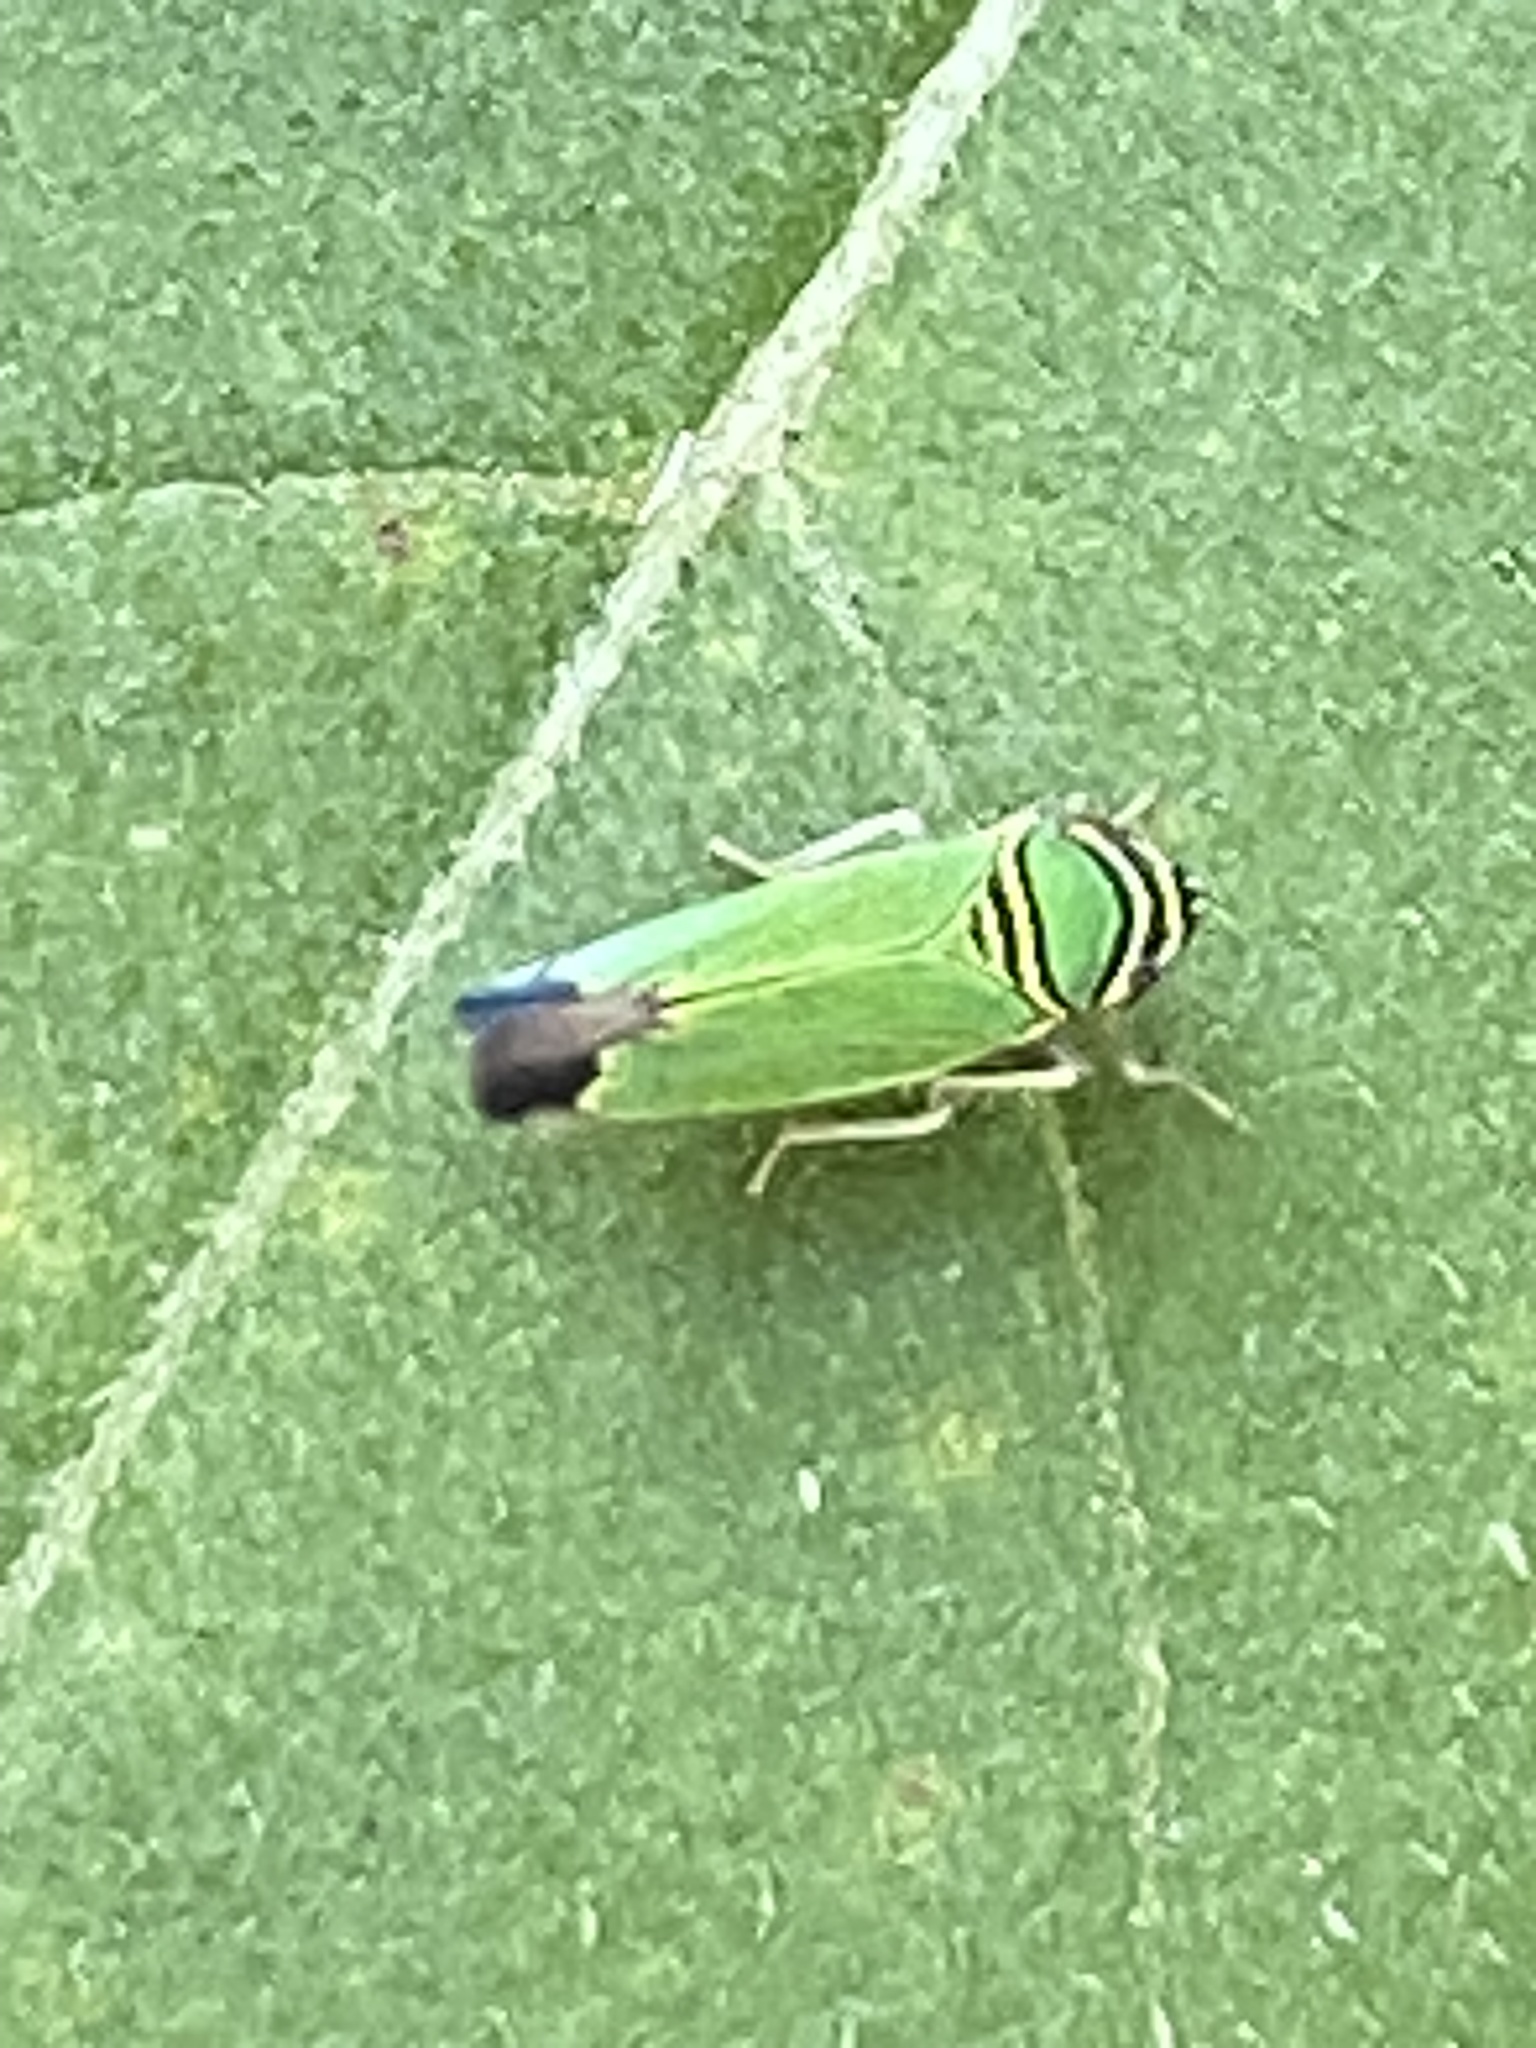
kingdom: Animalia
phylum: Arthropoda
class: Insecta
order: Hemiptera
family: Cicadellidae
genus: Tylozygus
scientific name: Tylozygus geometricus
